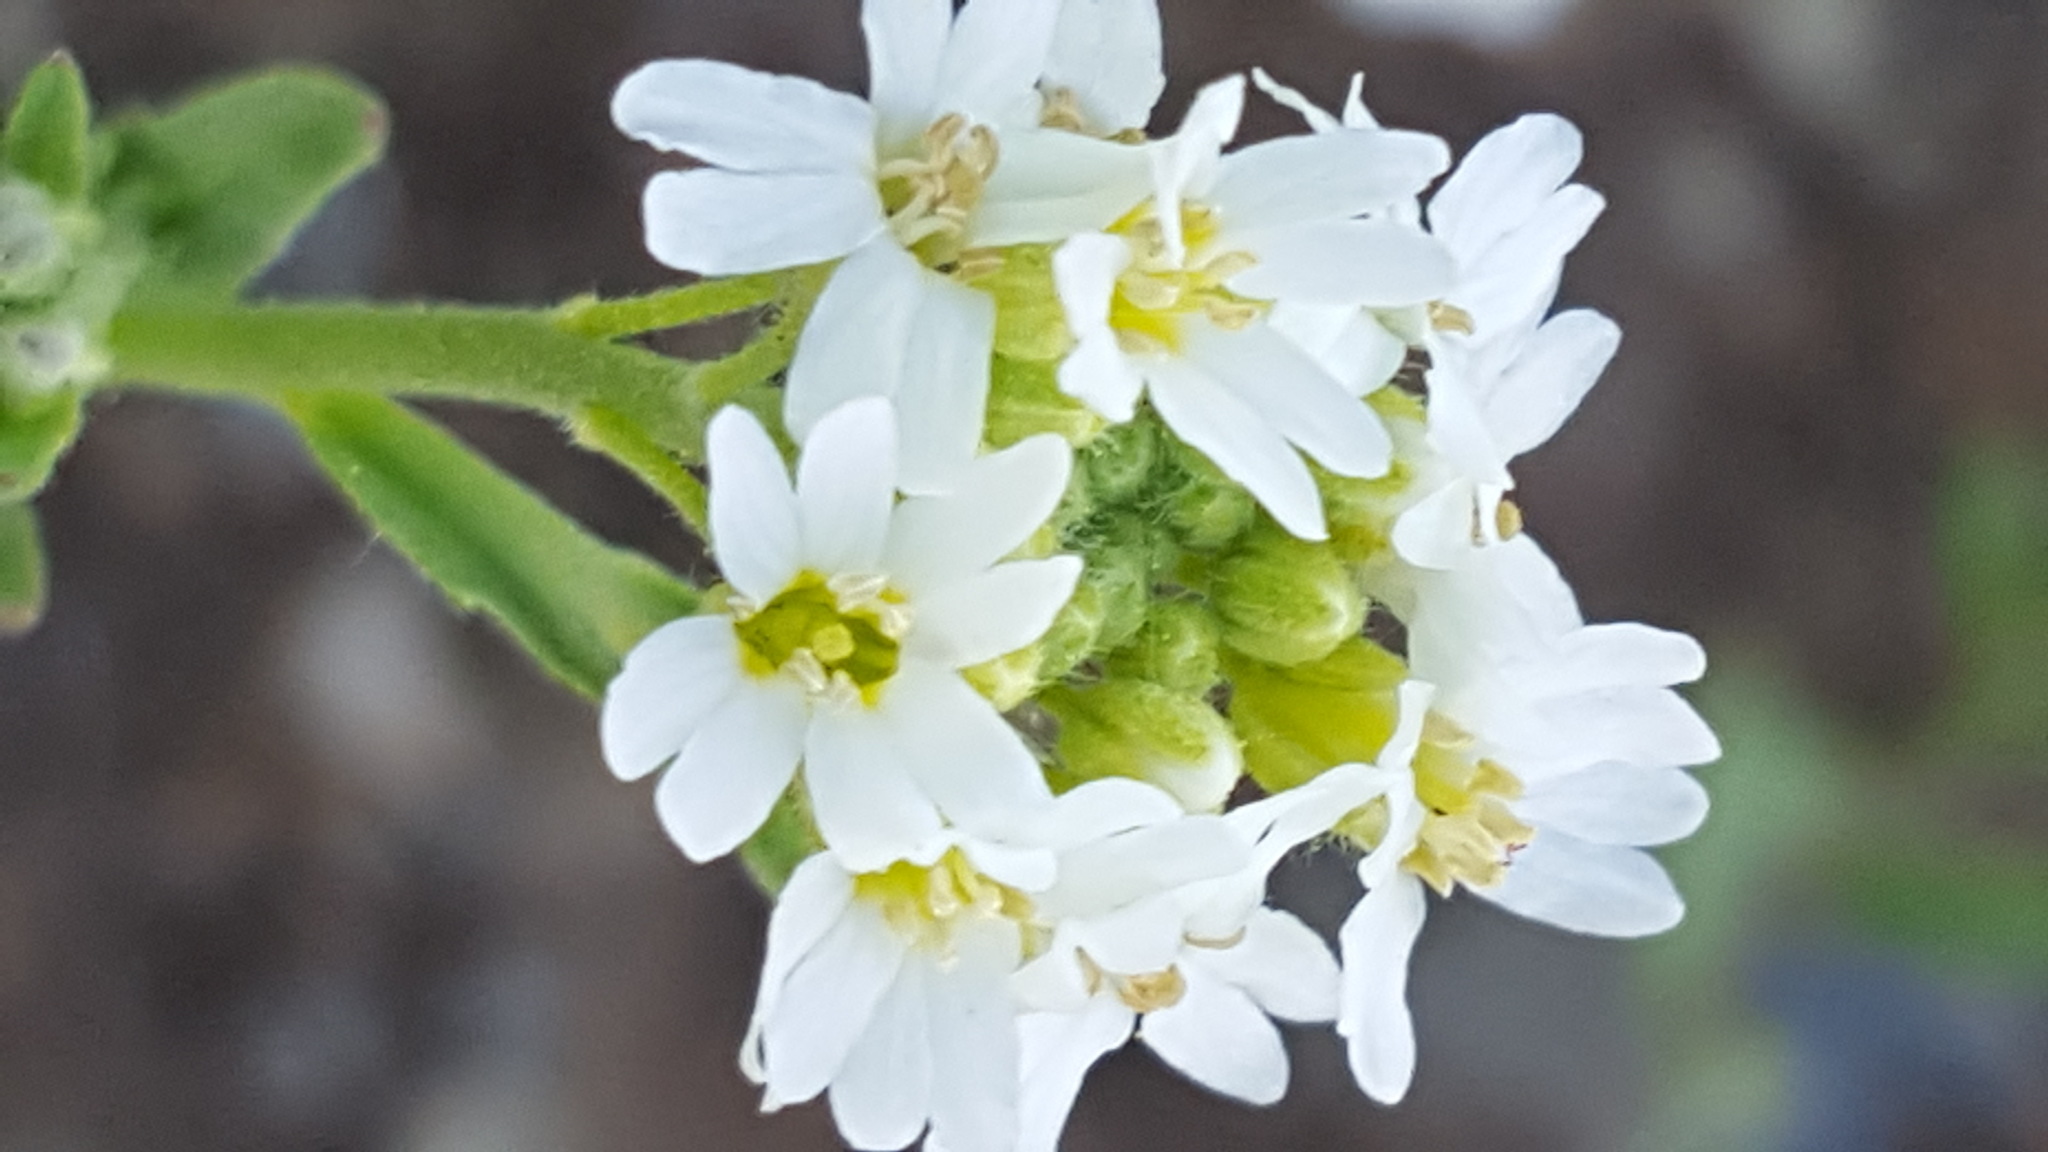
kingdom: Plantae
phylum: Tracheophyta
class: Magnoliopsida
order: Brassicales
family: Brassicaceae
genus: Berteroa
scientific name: Berteroa incana
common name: Hoary alison
